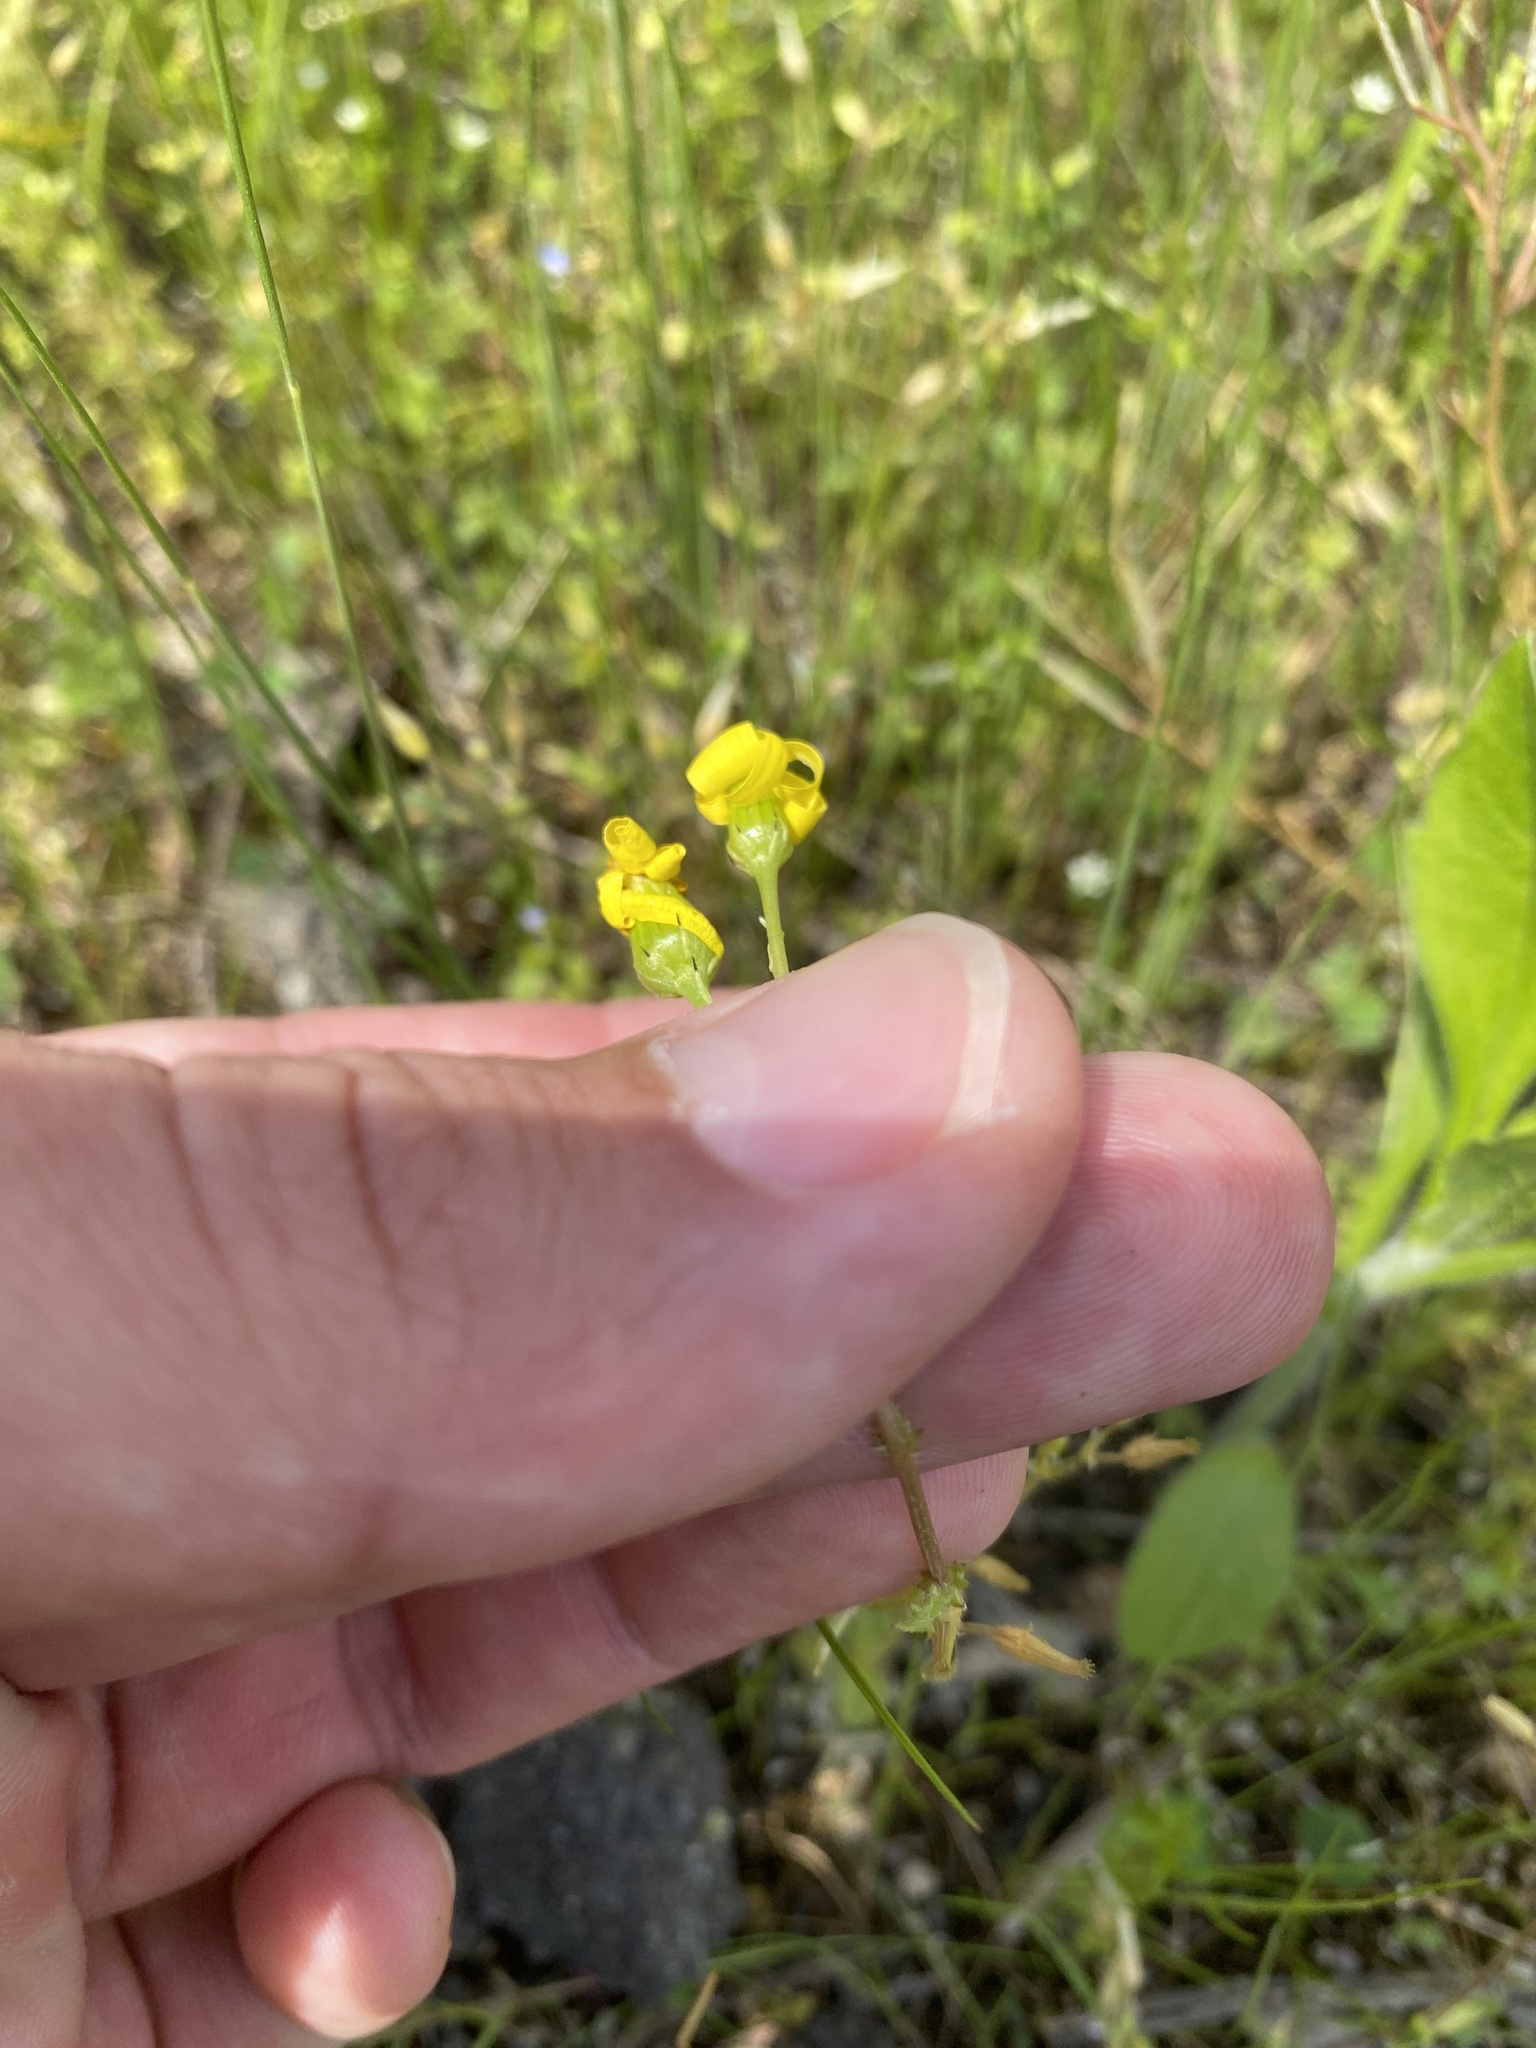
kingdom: Plantae
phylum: Tracheophyta
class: Magnoliopsida
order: Asterales
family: Asteraceae
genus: Senecio
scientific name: Senecio vernalis
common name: Eastern groundsel
